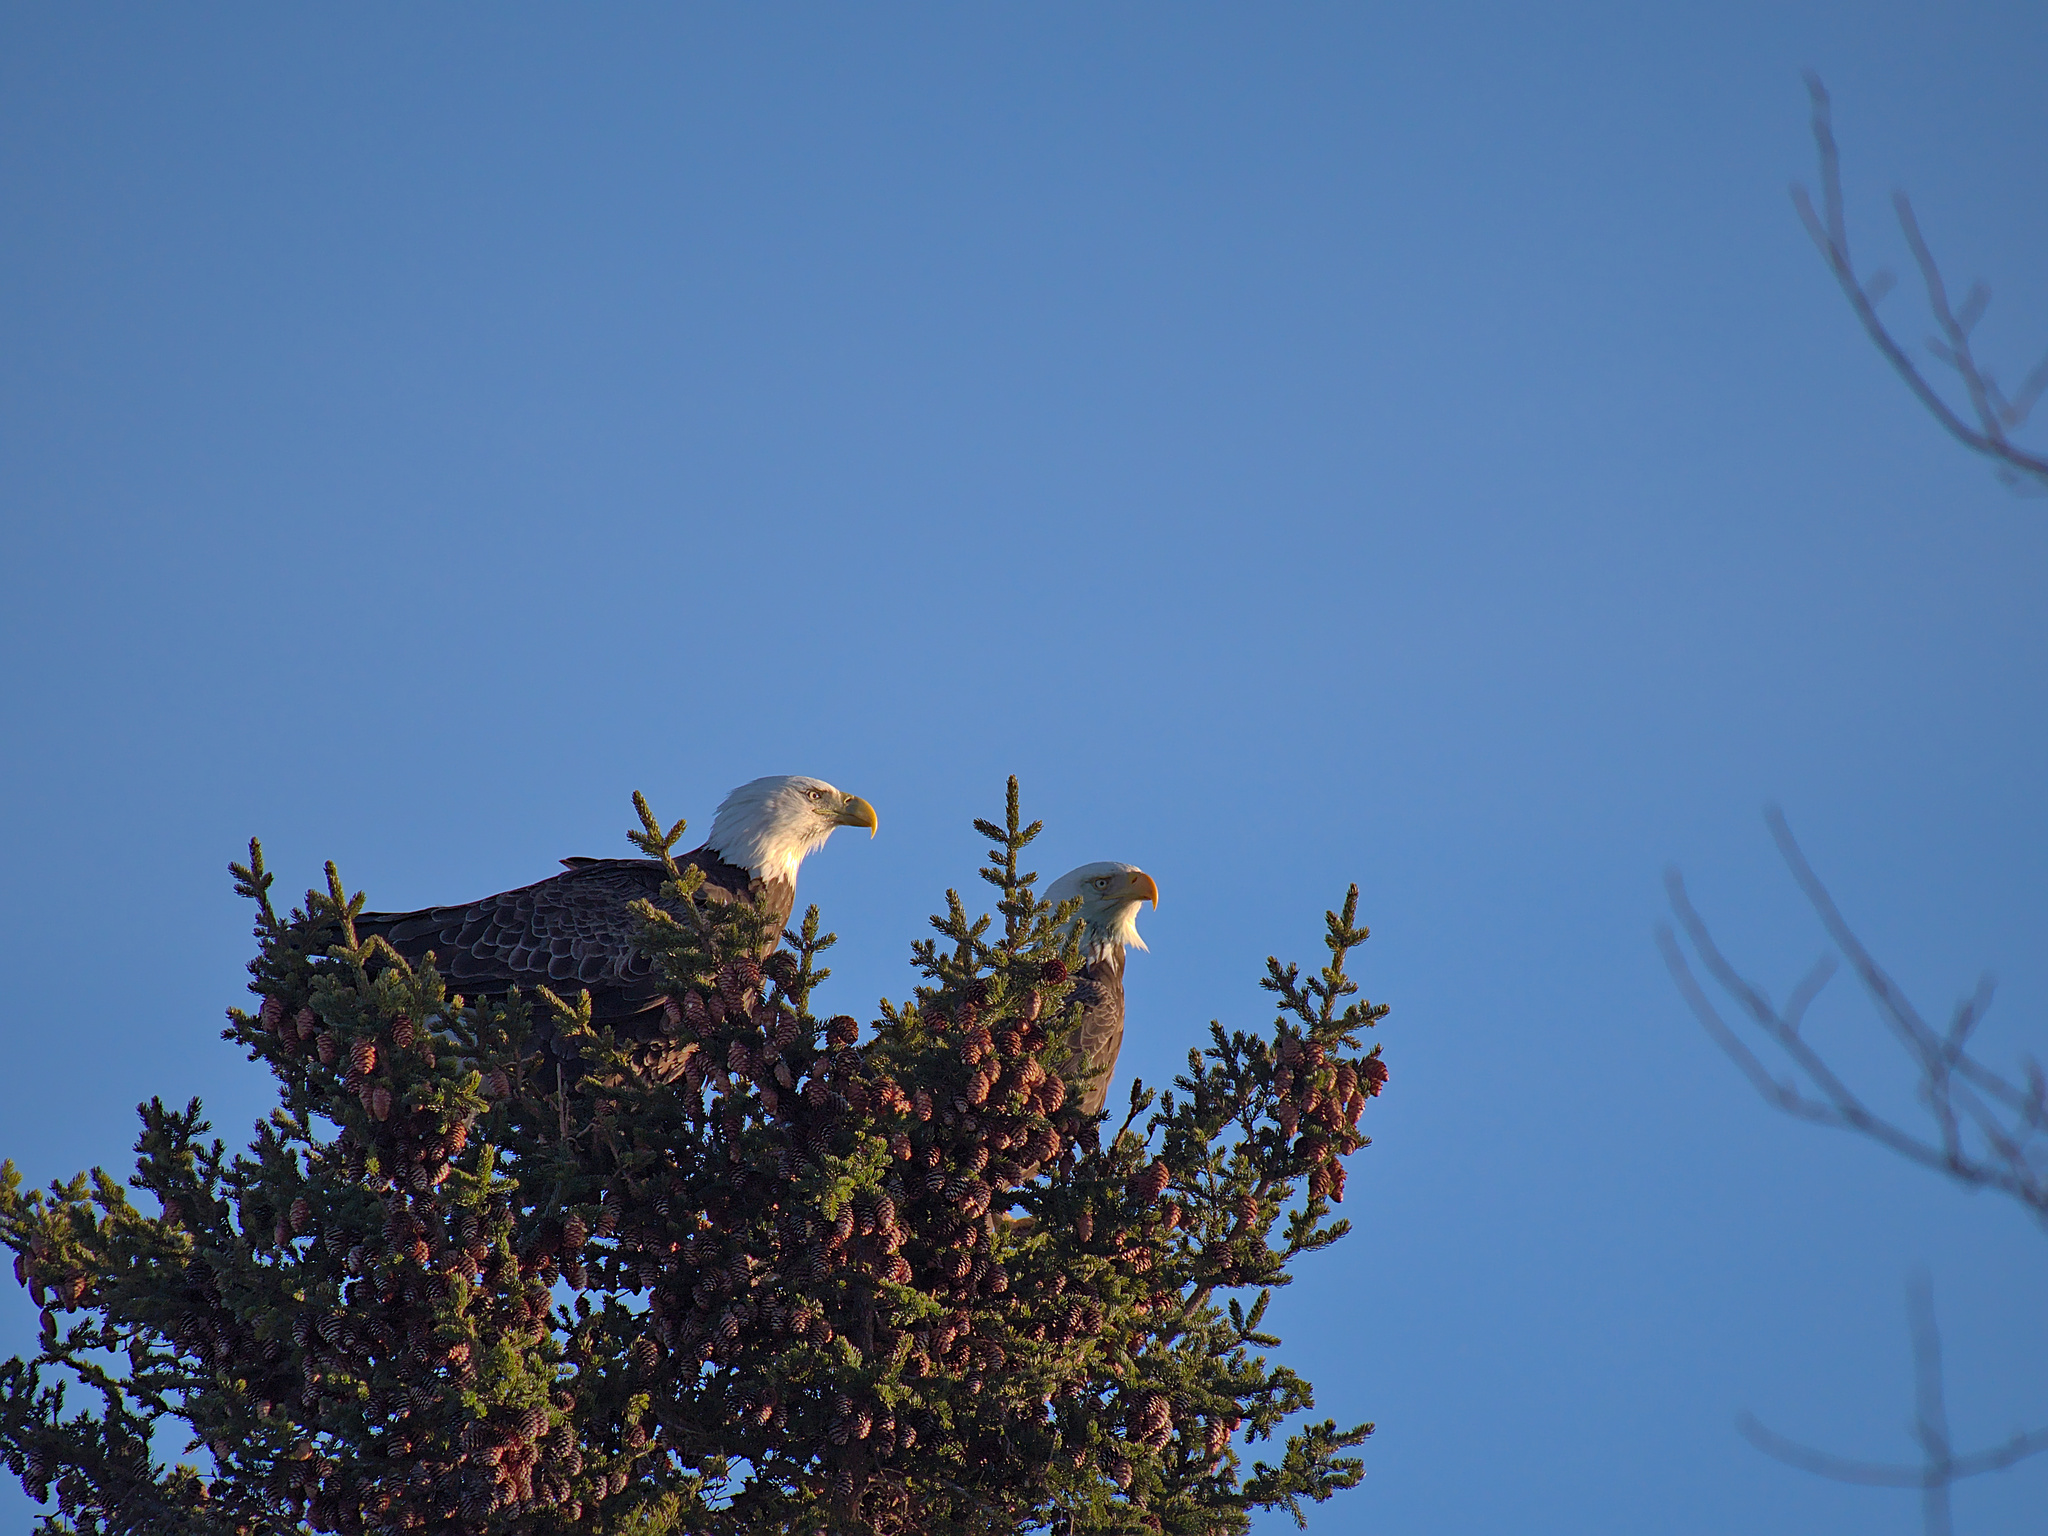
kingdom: Animalia
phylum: Chordata
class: Aves
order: Accipitriformes
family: Accipitridae
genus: Haliaeetus
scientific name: Haliaeetus leucocephalus
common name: Bald eagle
